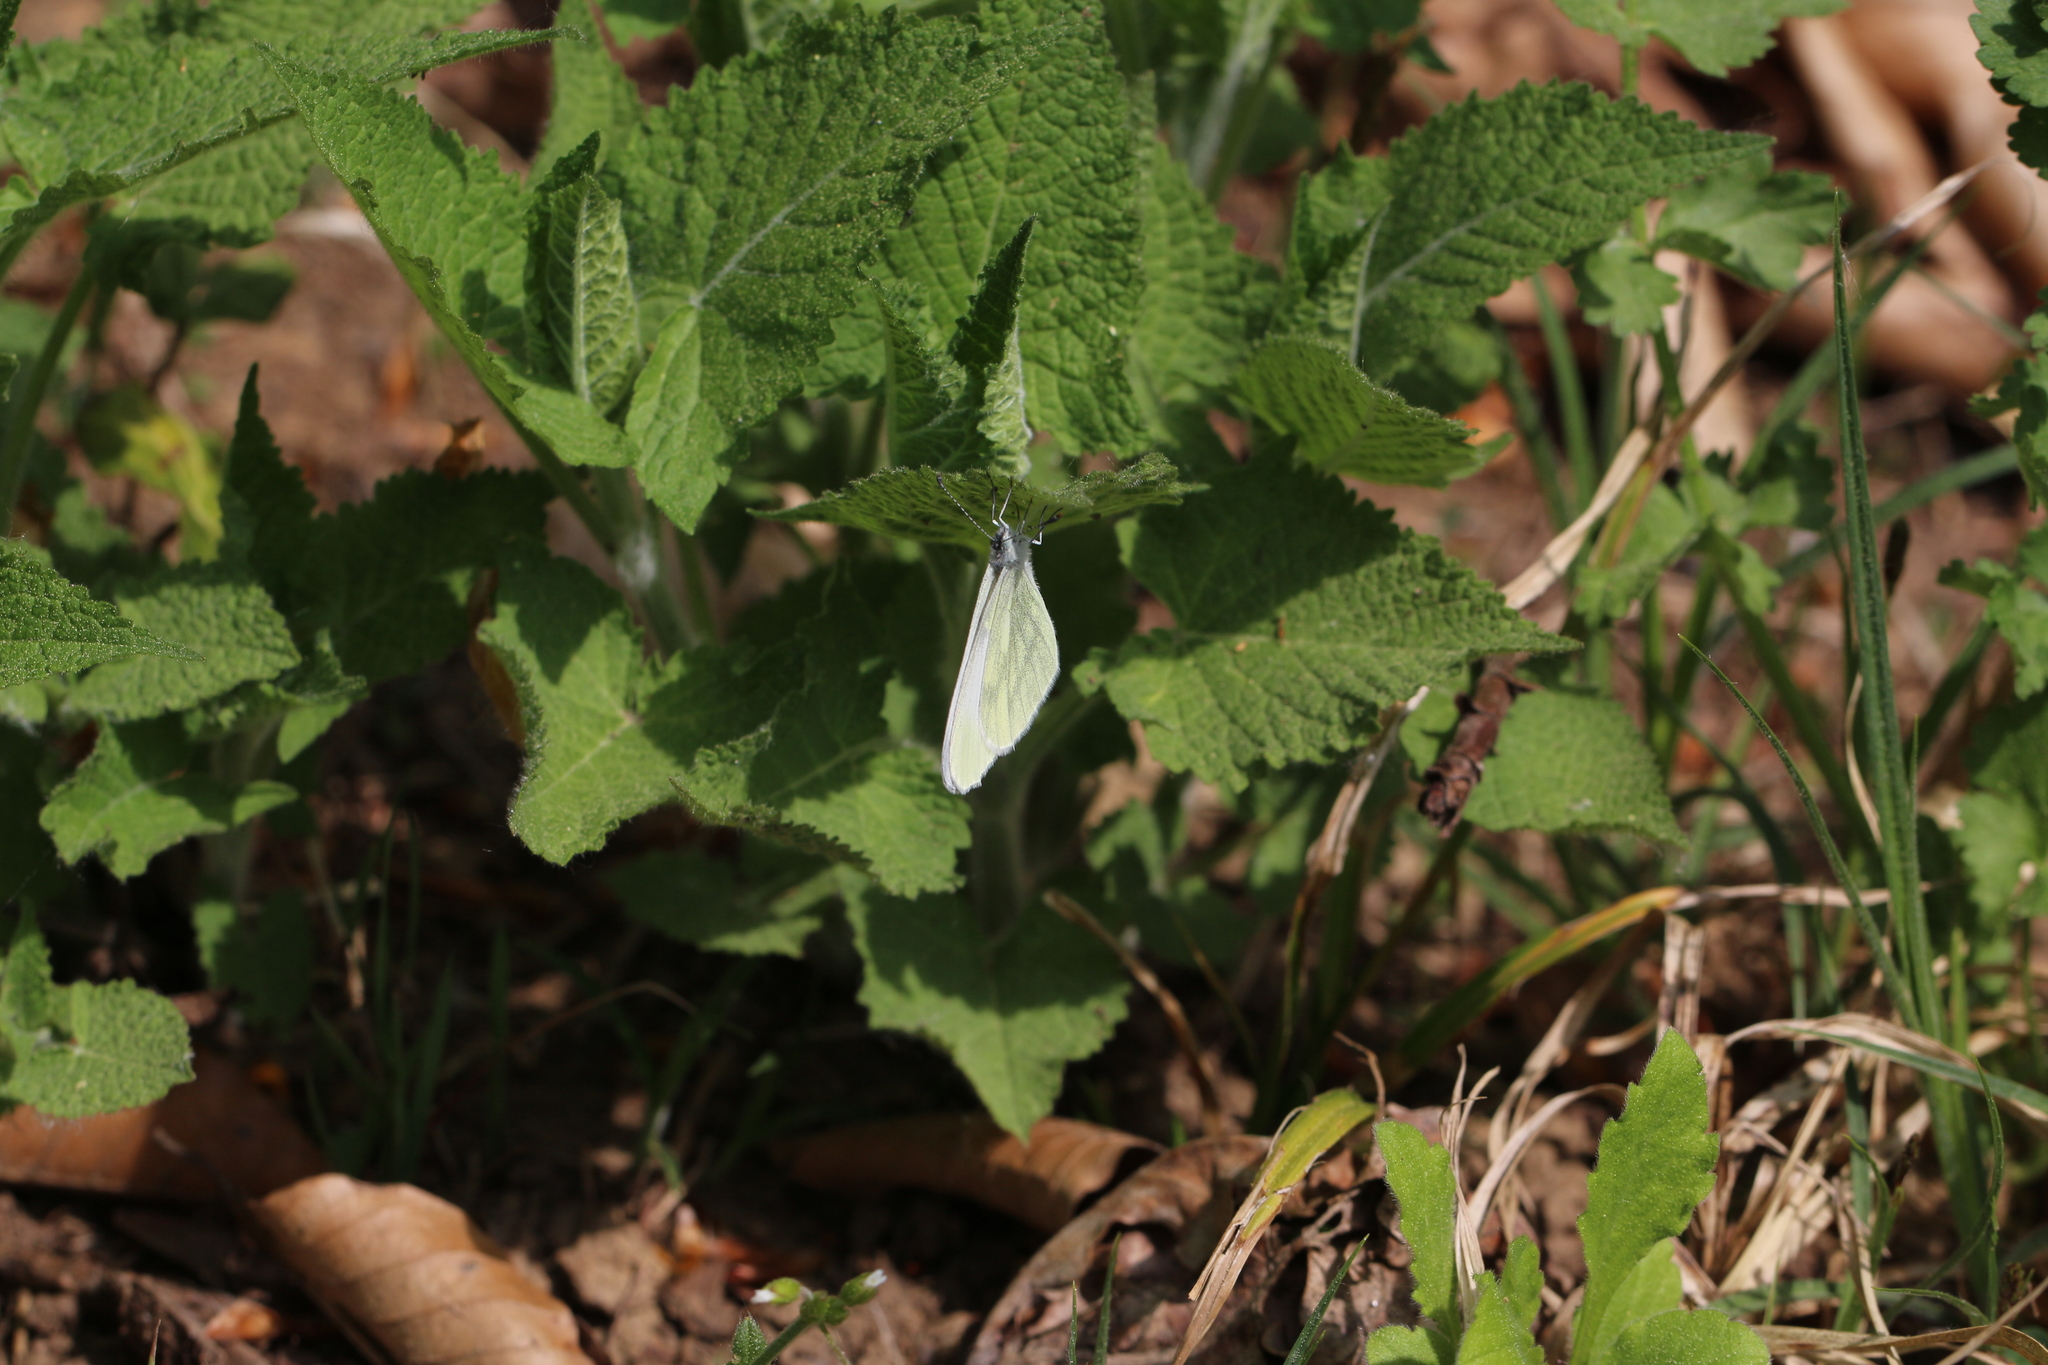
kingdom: Animalia
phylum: Arthropoda
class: Insecta
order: Lepidoptera
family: Pieridae
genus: Leptidea
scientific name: Leptidea
